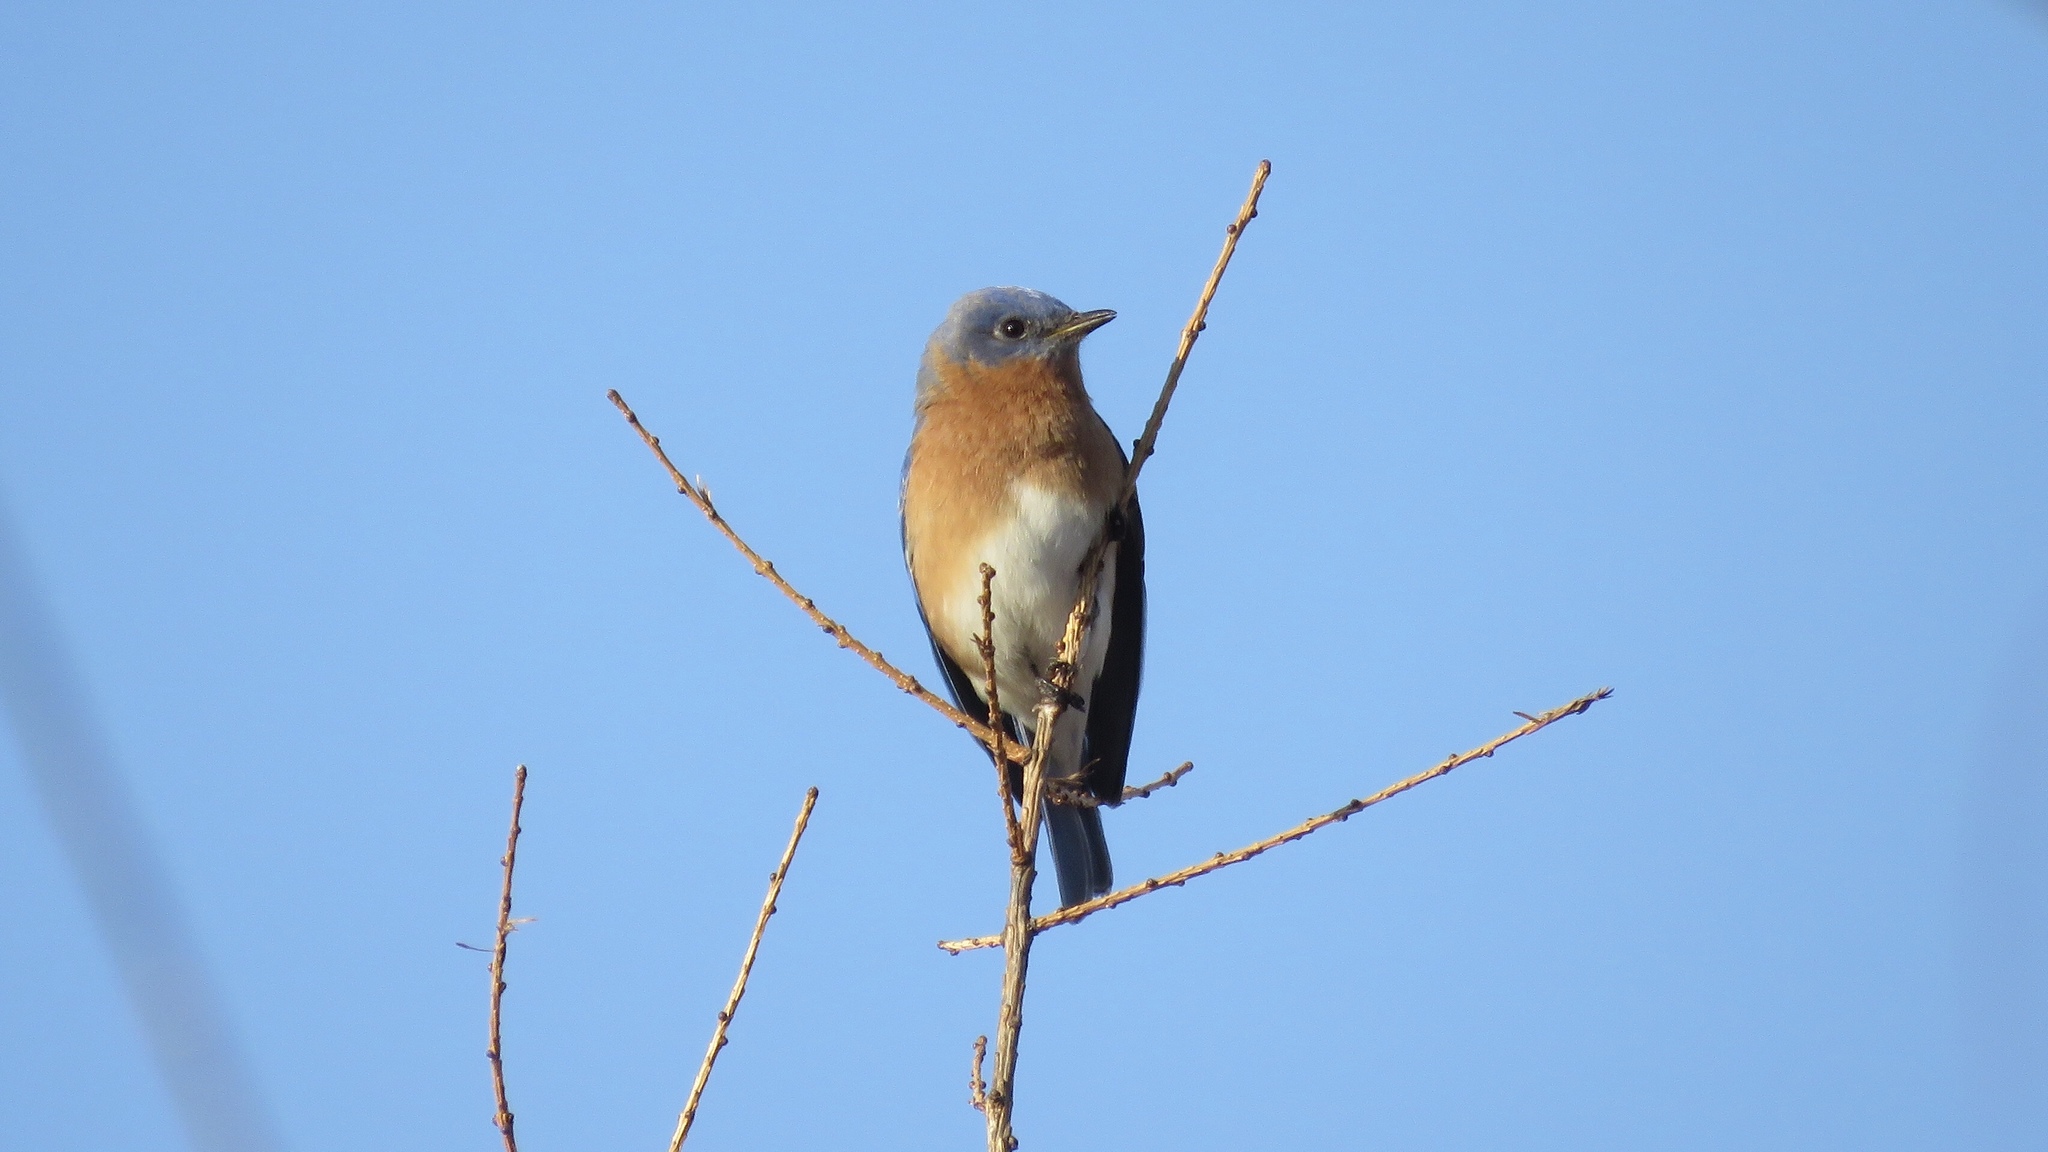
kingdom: Animalia
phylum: Chordata
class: Aves
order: Passeriformes
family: Turdidae
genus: Sialia
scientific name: Sialia sialis
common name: Eastern bluebird
